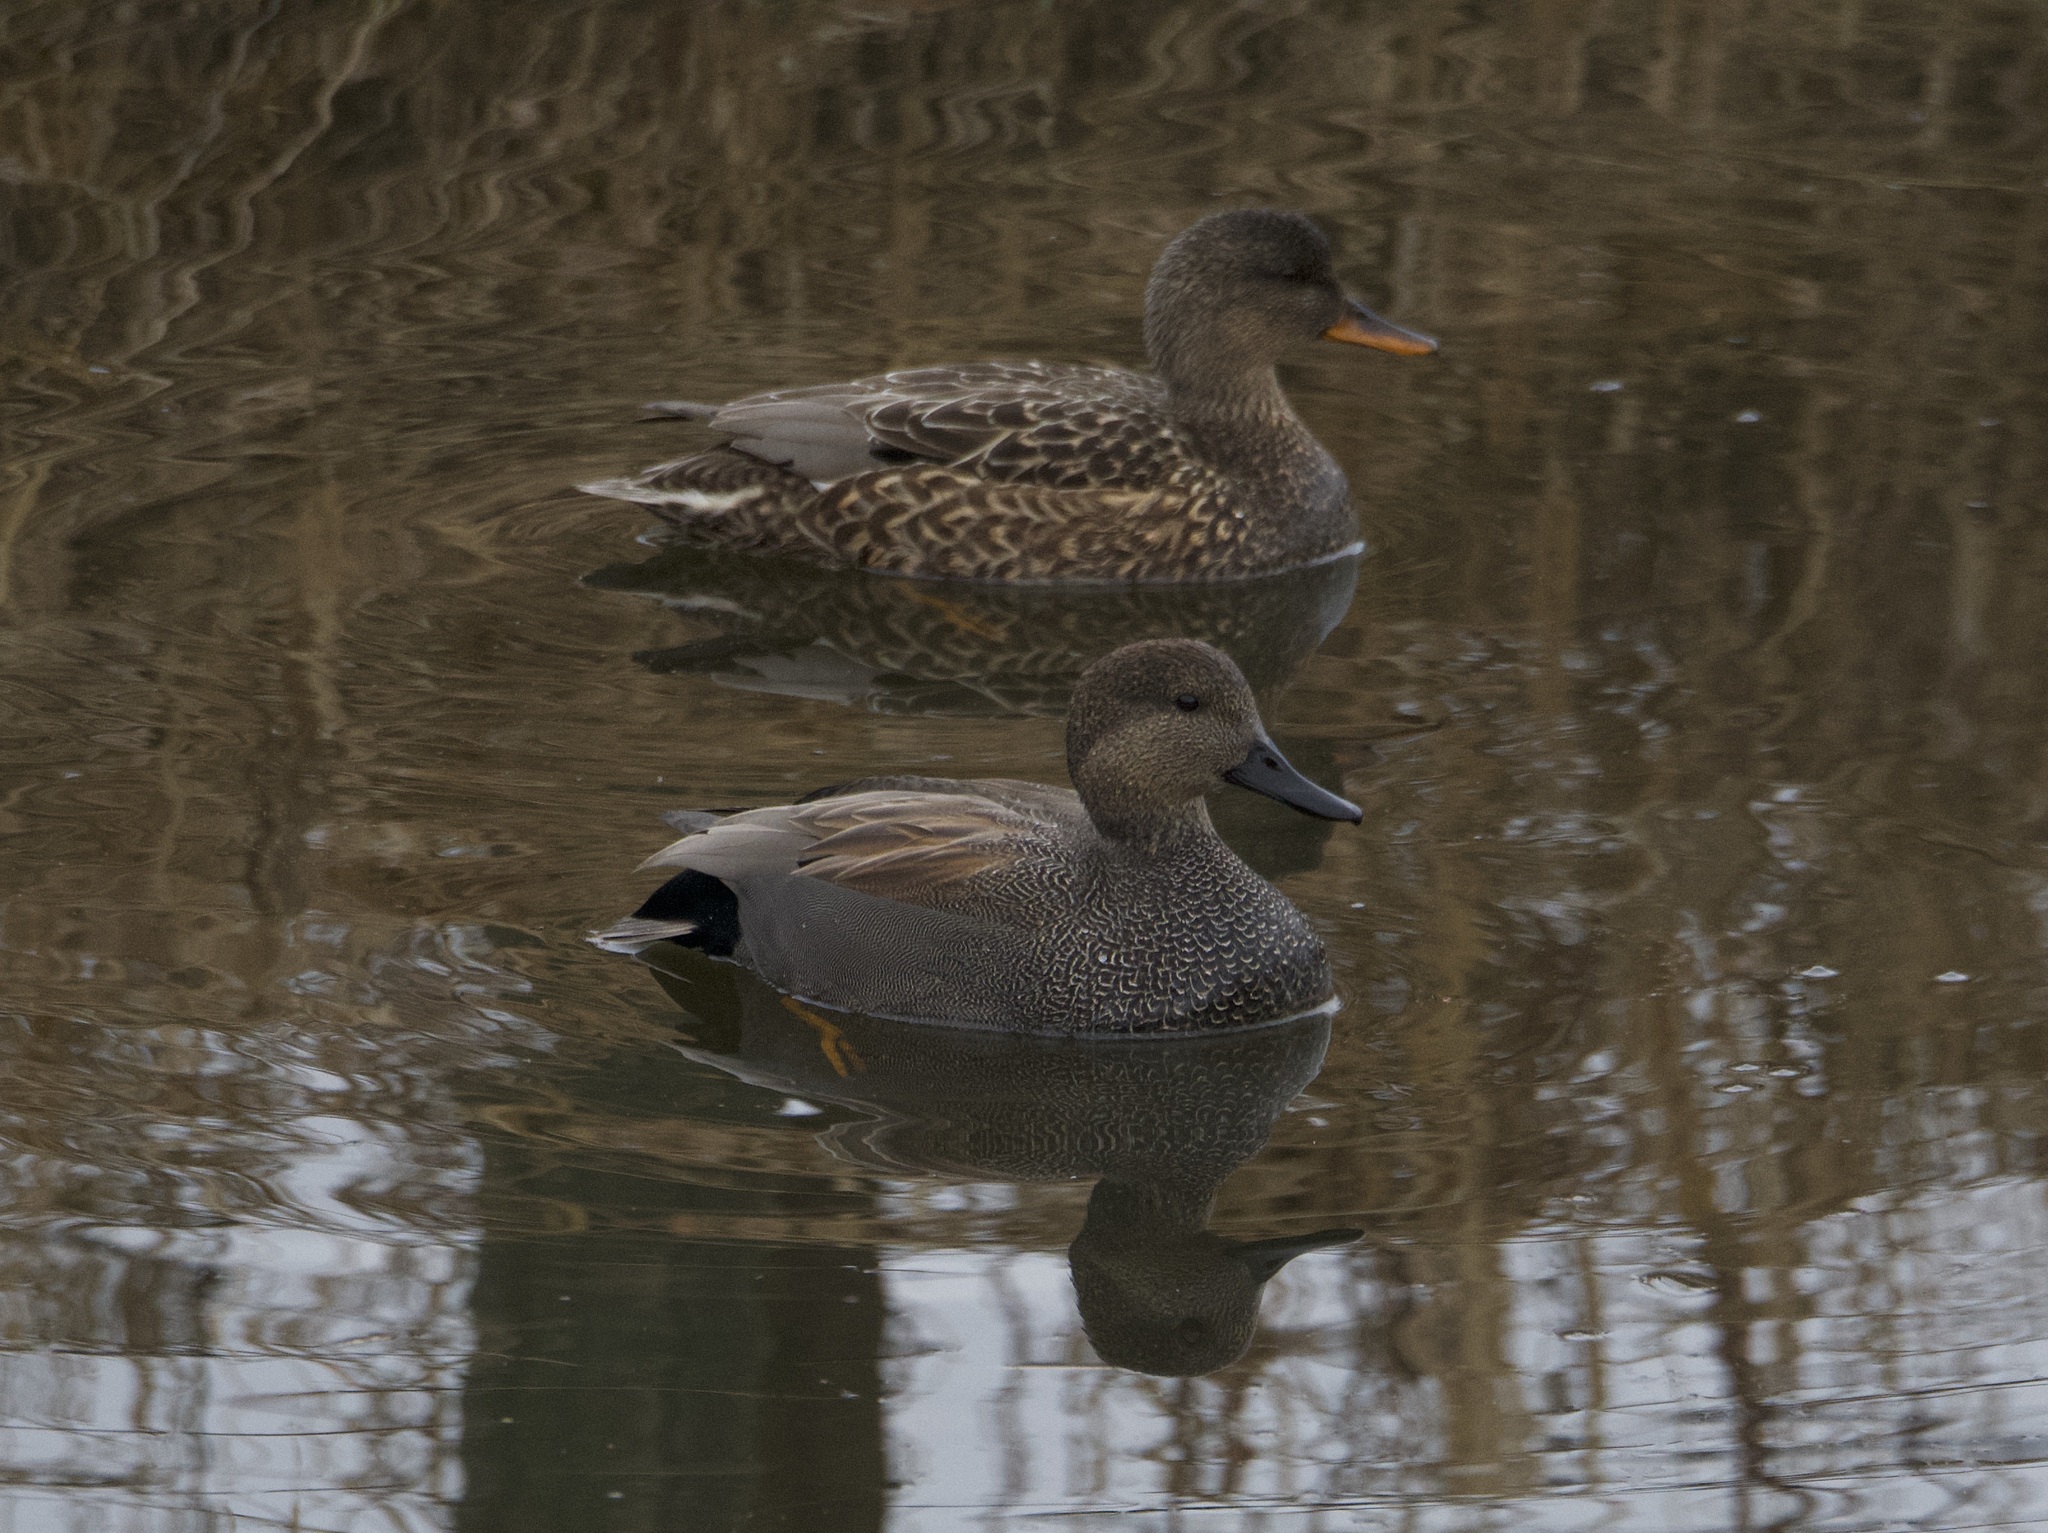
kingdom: Animalia
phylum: Chordata
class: Aves
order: Anseriformes
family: Anatidae
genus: Mareca
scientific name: Mareca strepera
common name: Gadwall
